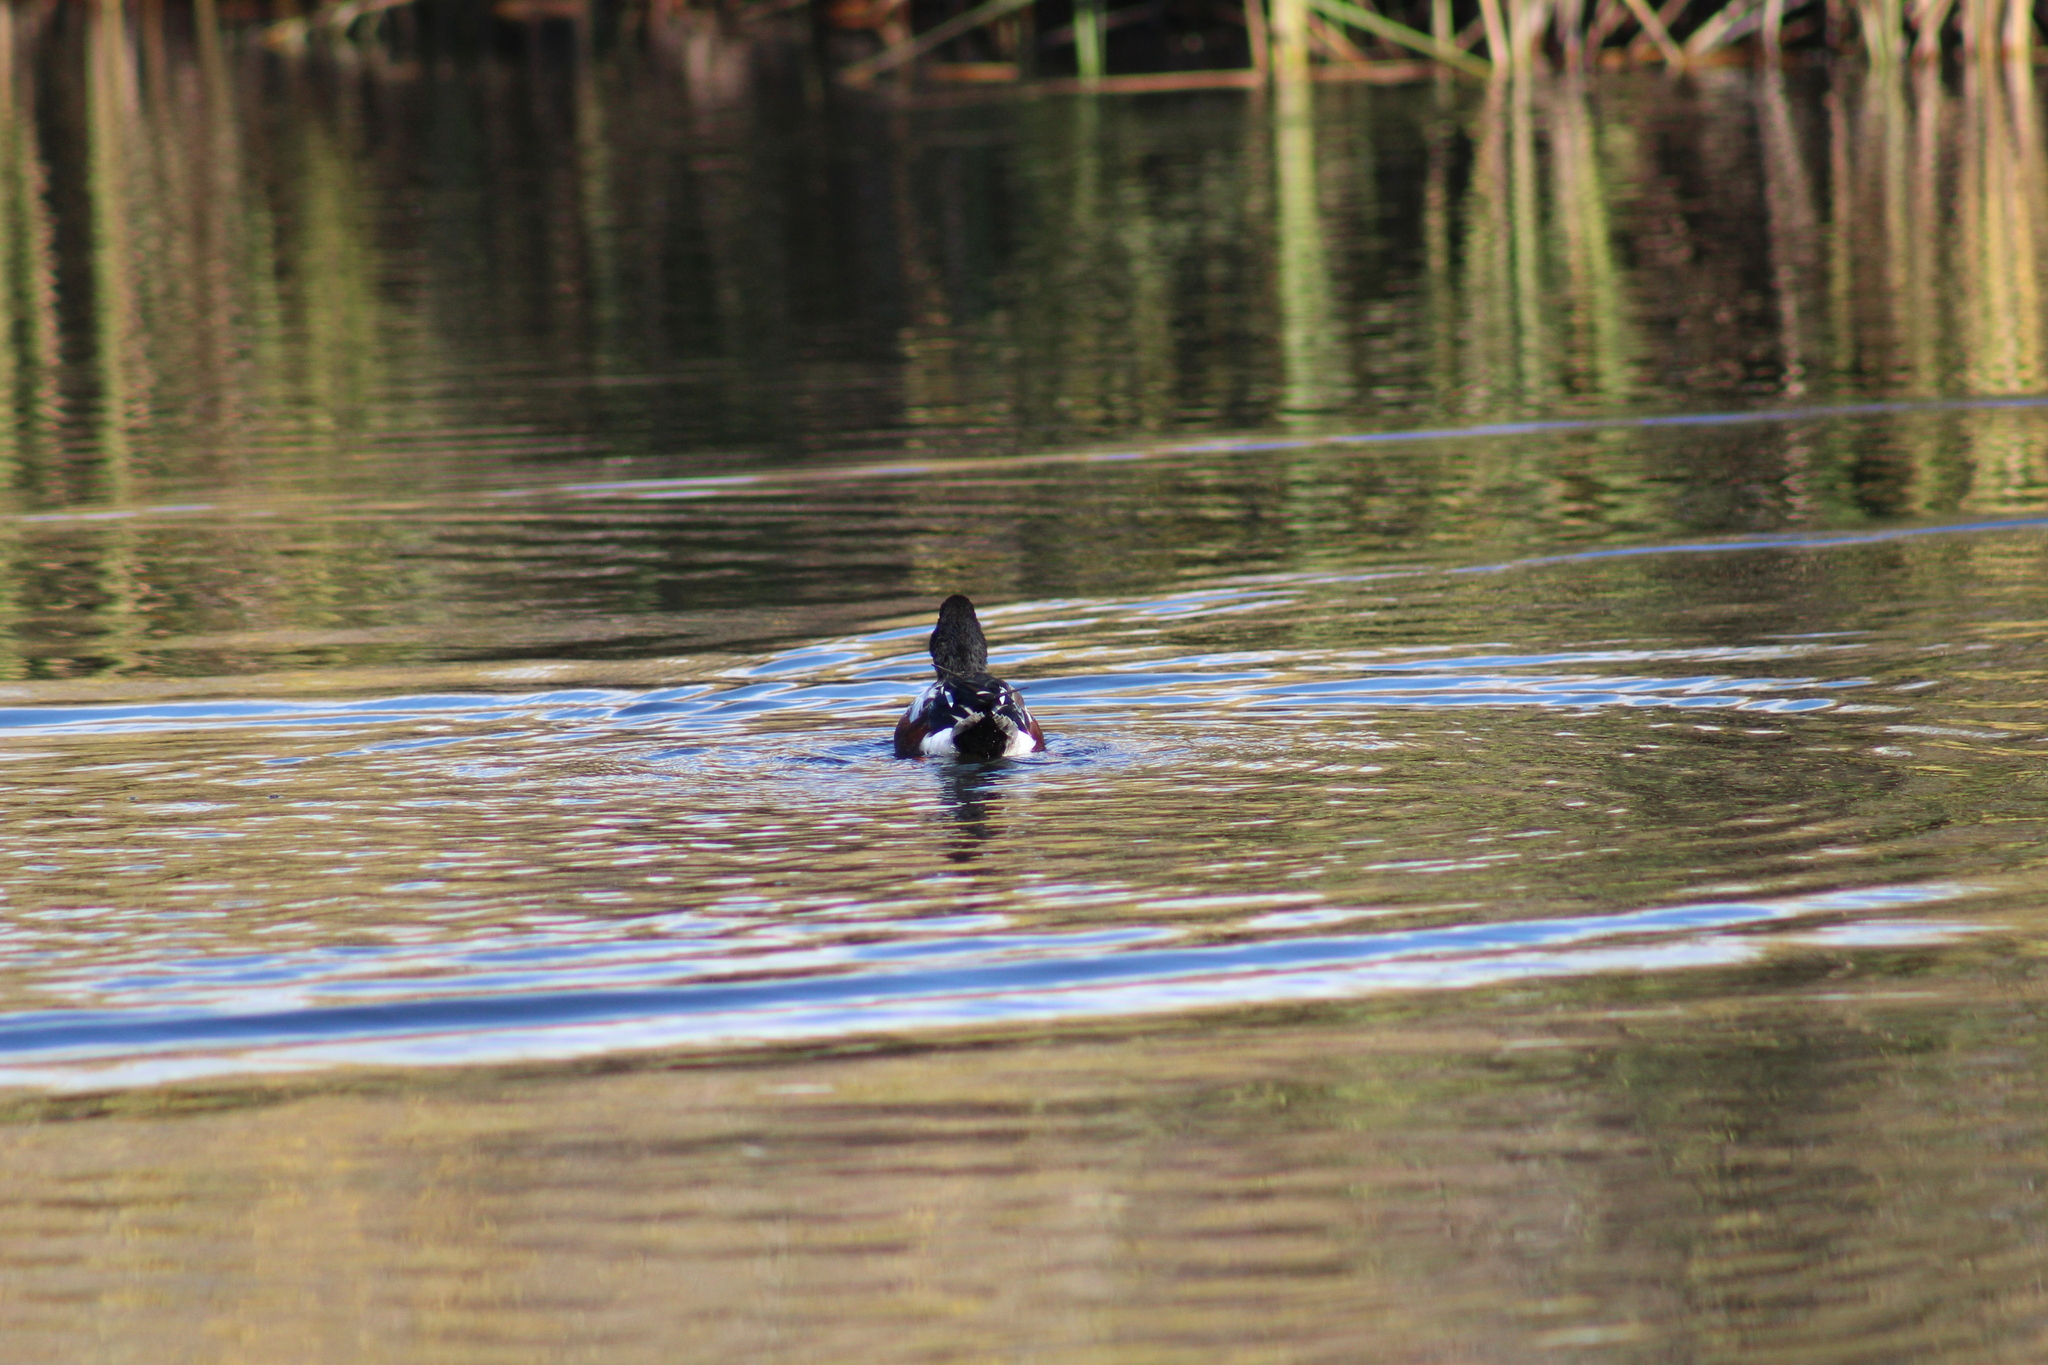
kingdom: Animalia
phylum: Chordata
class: Aves
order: Anseriformes
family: Anatidae
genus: Spatula
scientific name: Spatula clypeata
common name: Northern shoveler
